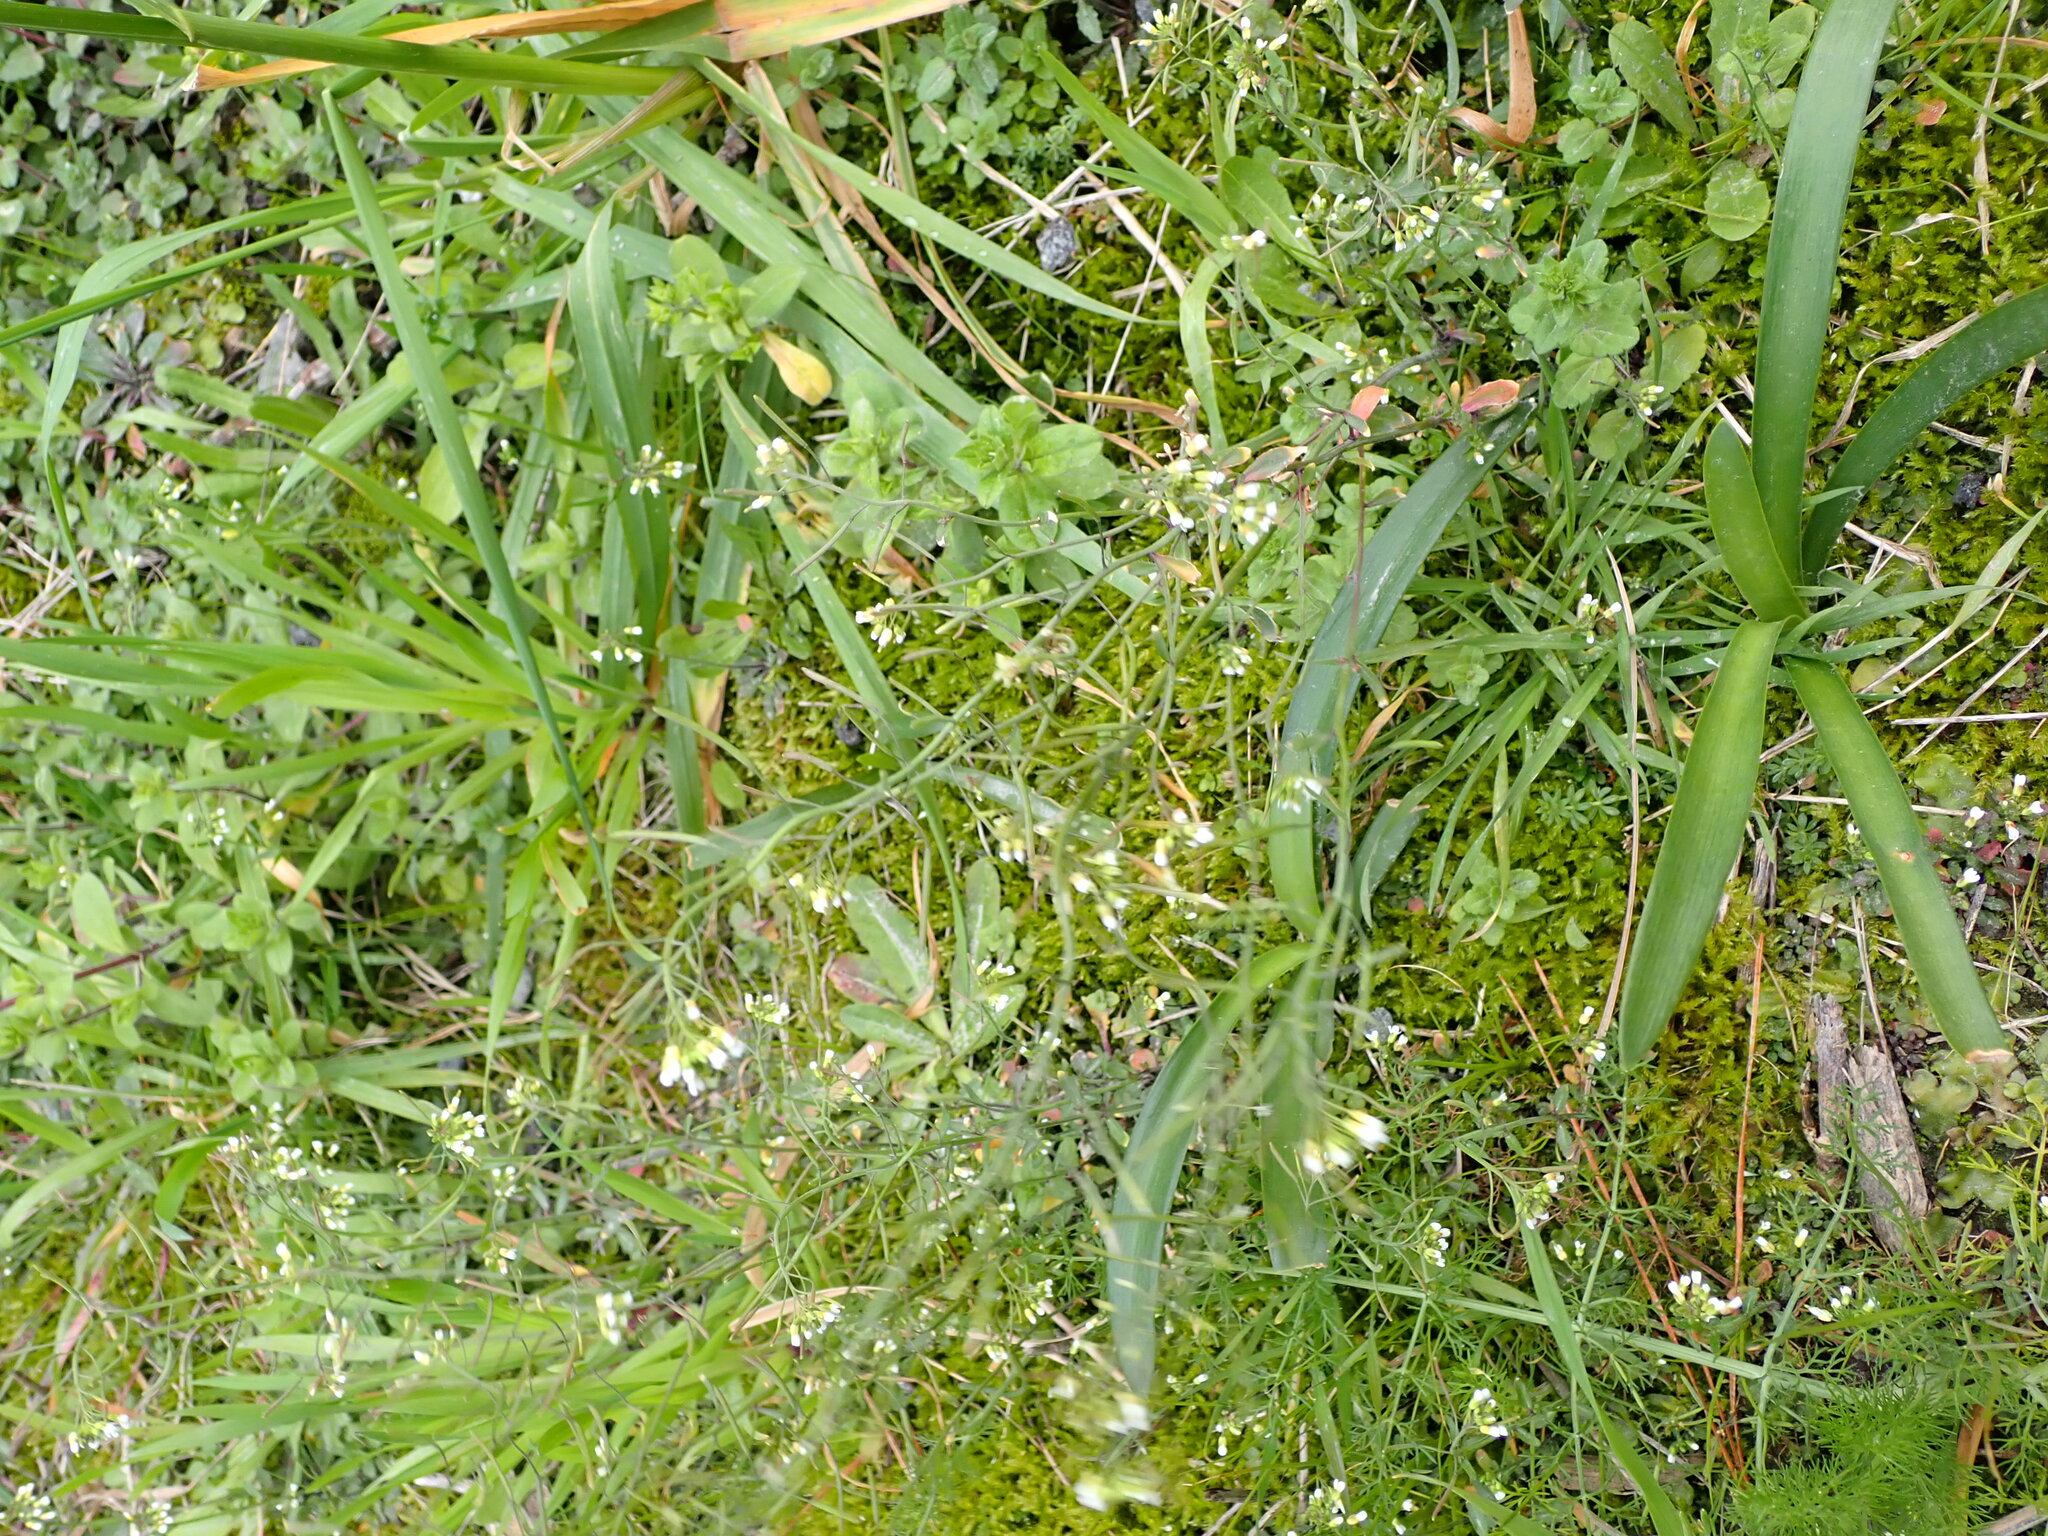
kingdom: Plantae
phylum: Tracheophyta
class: Magnoliopsida
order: Brassicales
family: Brassicaceae
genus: Arabidopsis
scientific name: Arabidopsis thaliana
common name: Thale cress
